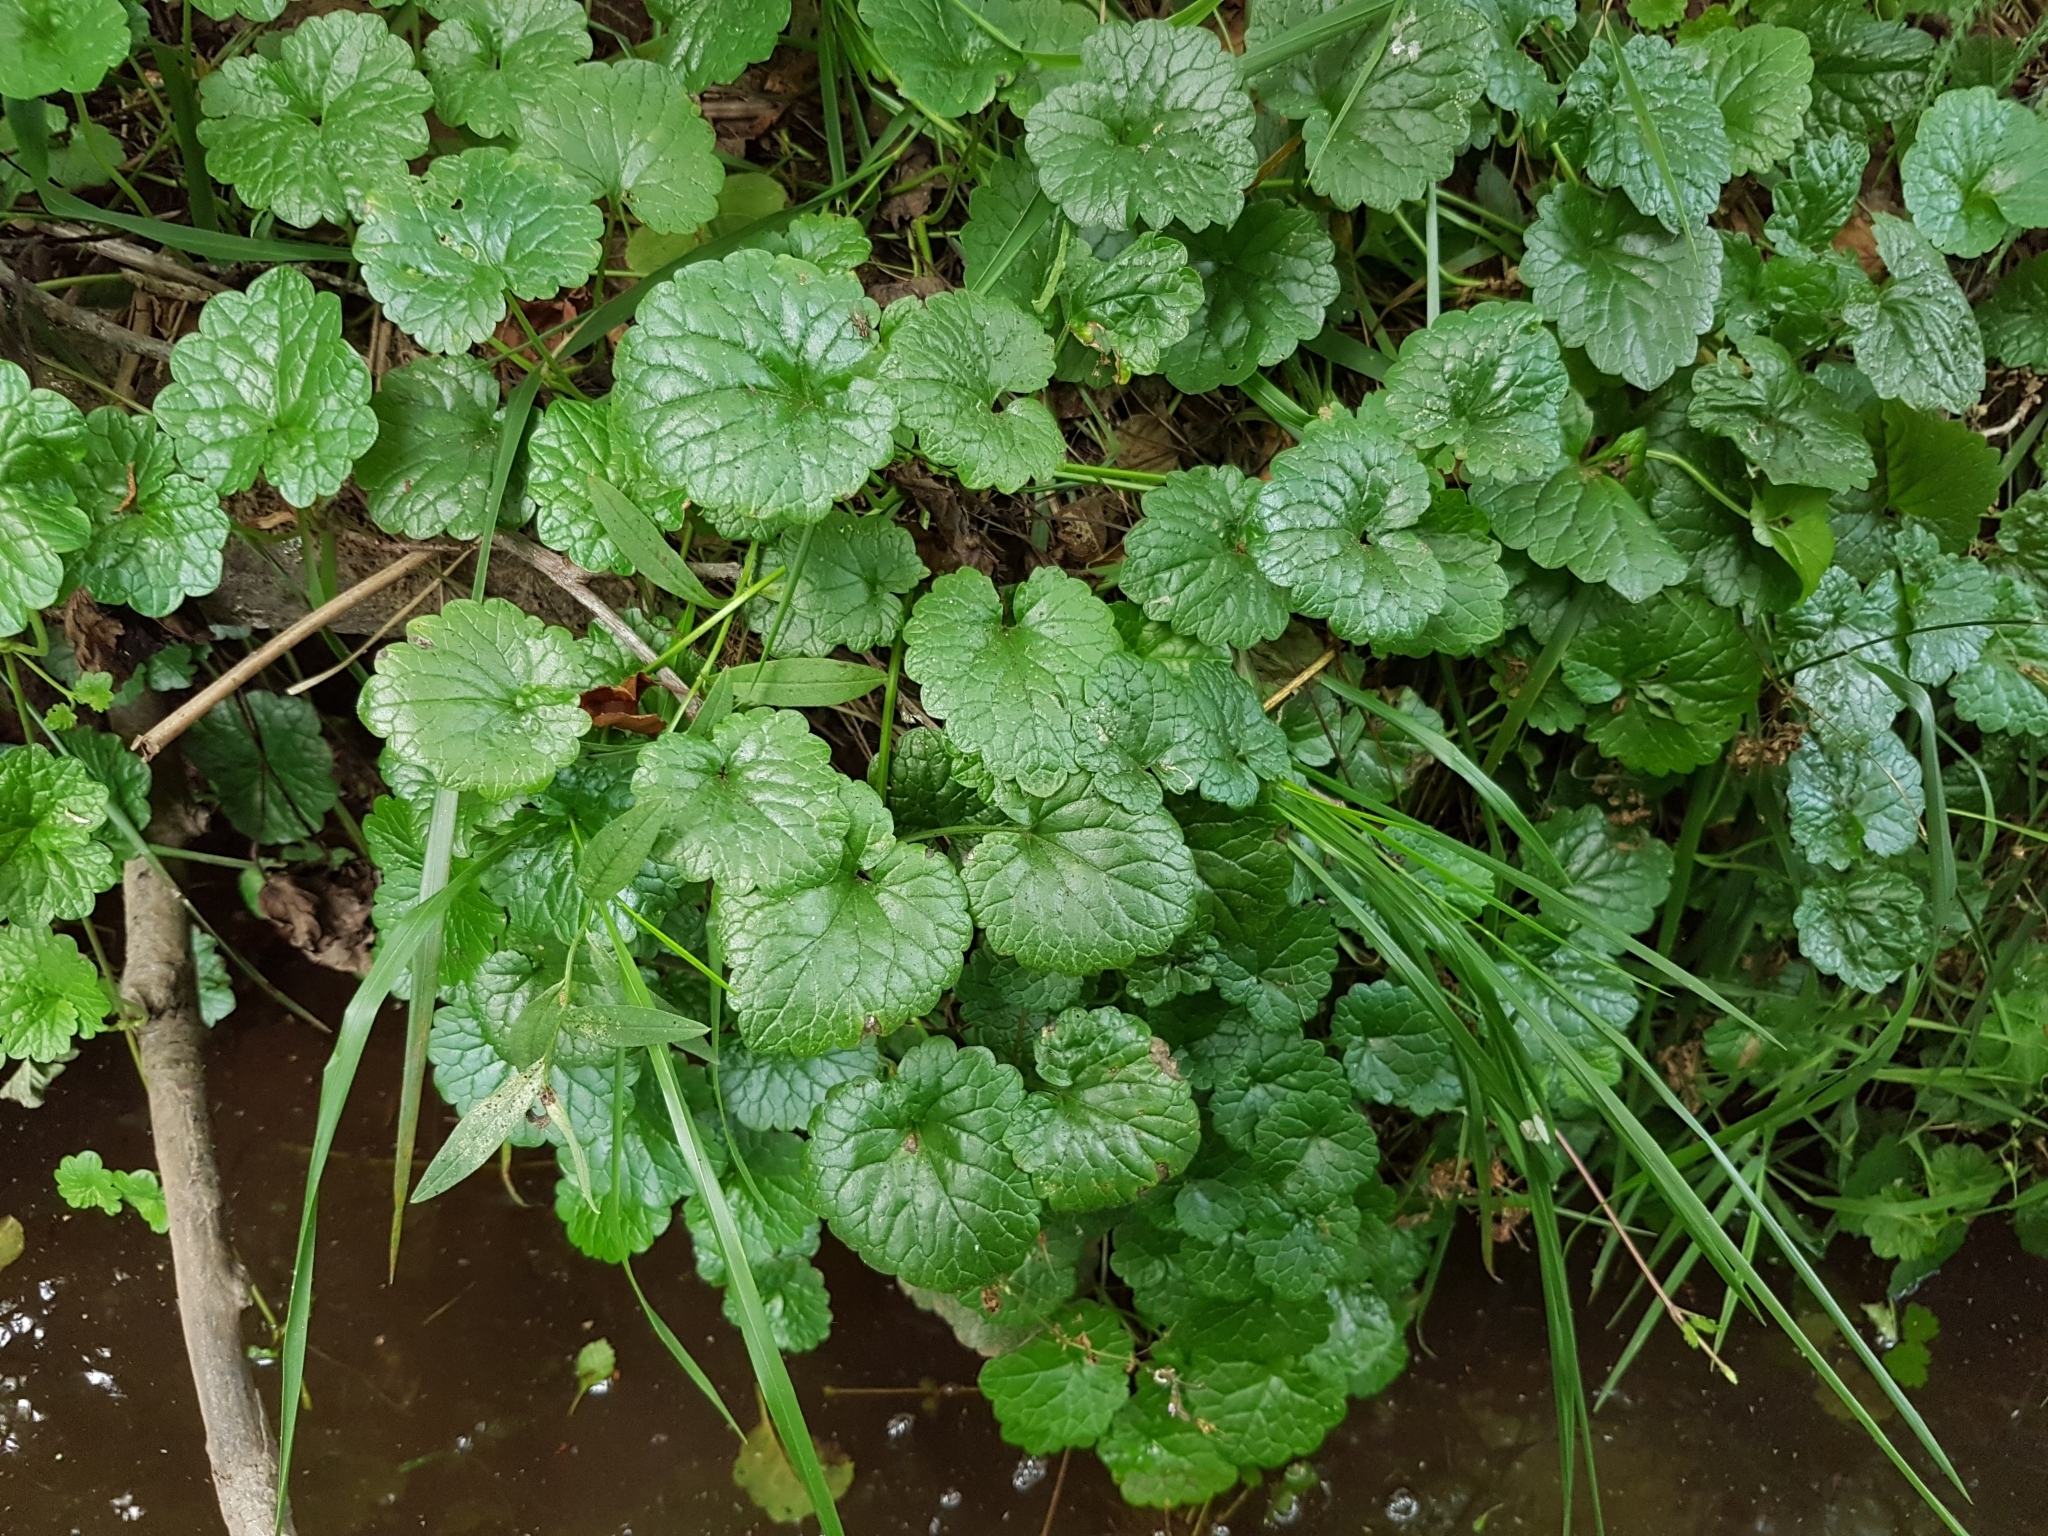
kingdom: Plantae
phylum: Tracheophyta
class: Magnoliopsida
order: Lamiales
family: Lamiaceae
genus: Glechoma
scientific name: Glechoma hederacea
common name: Ground ivy
